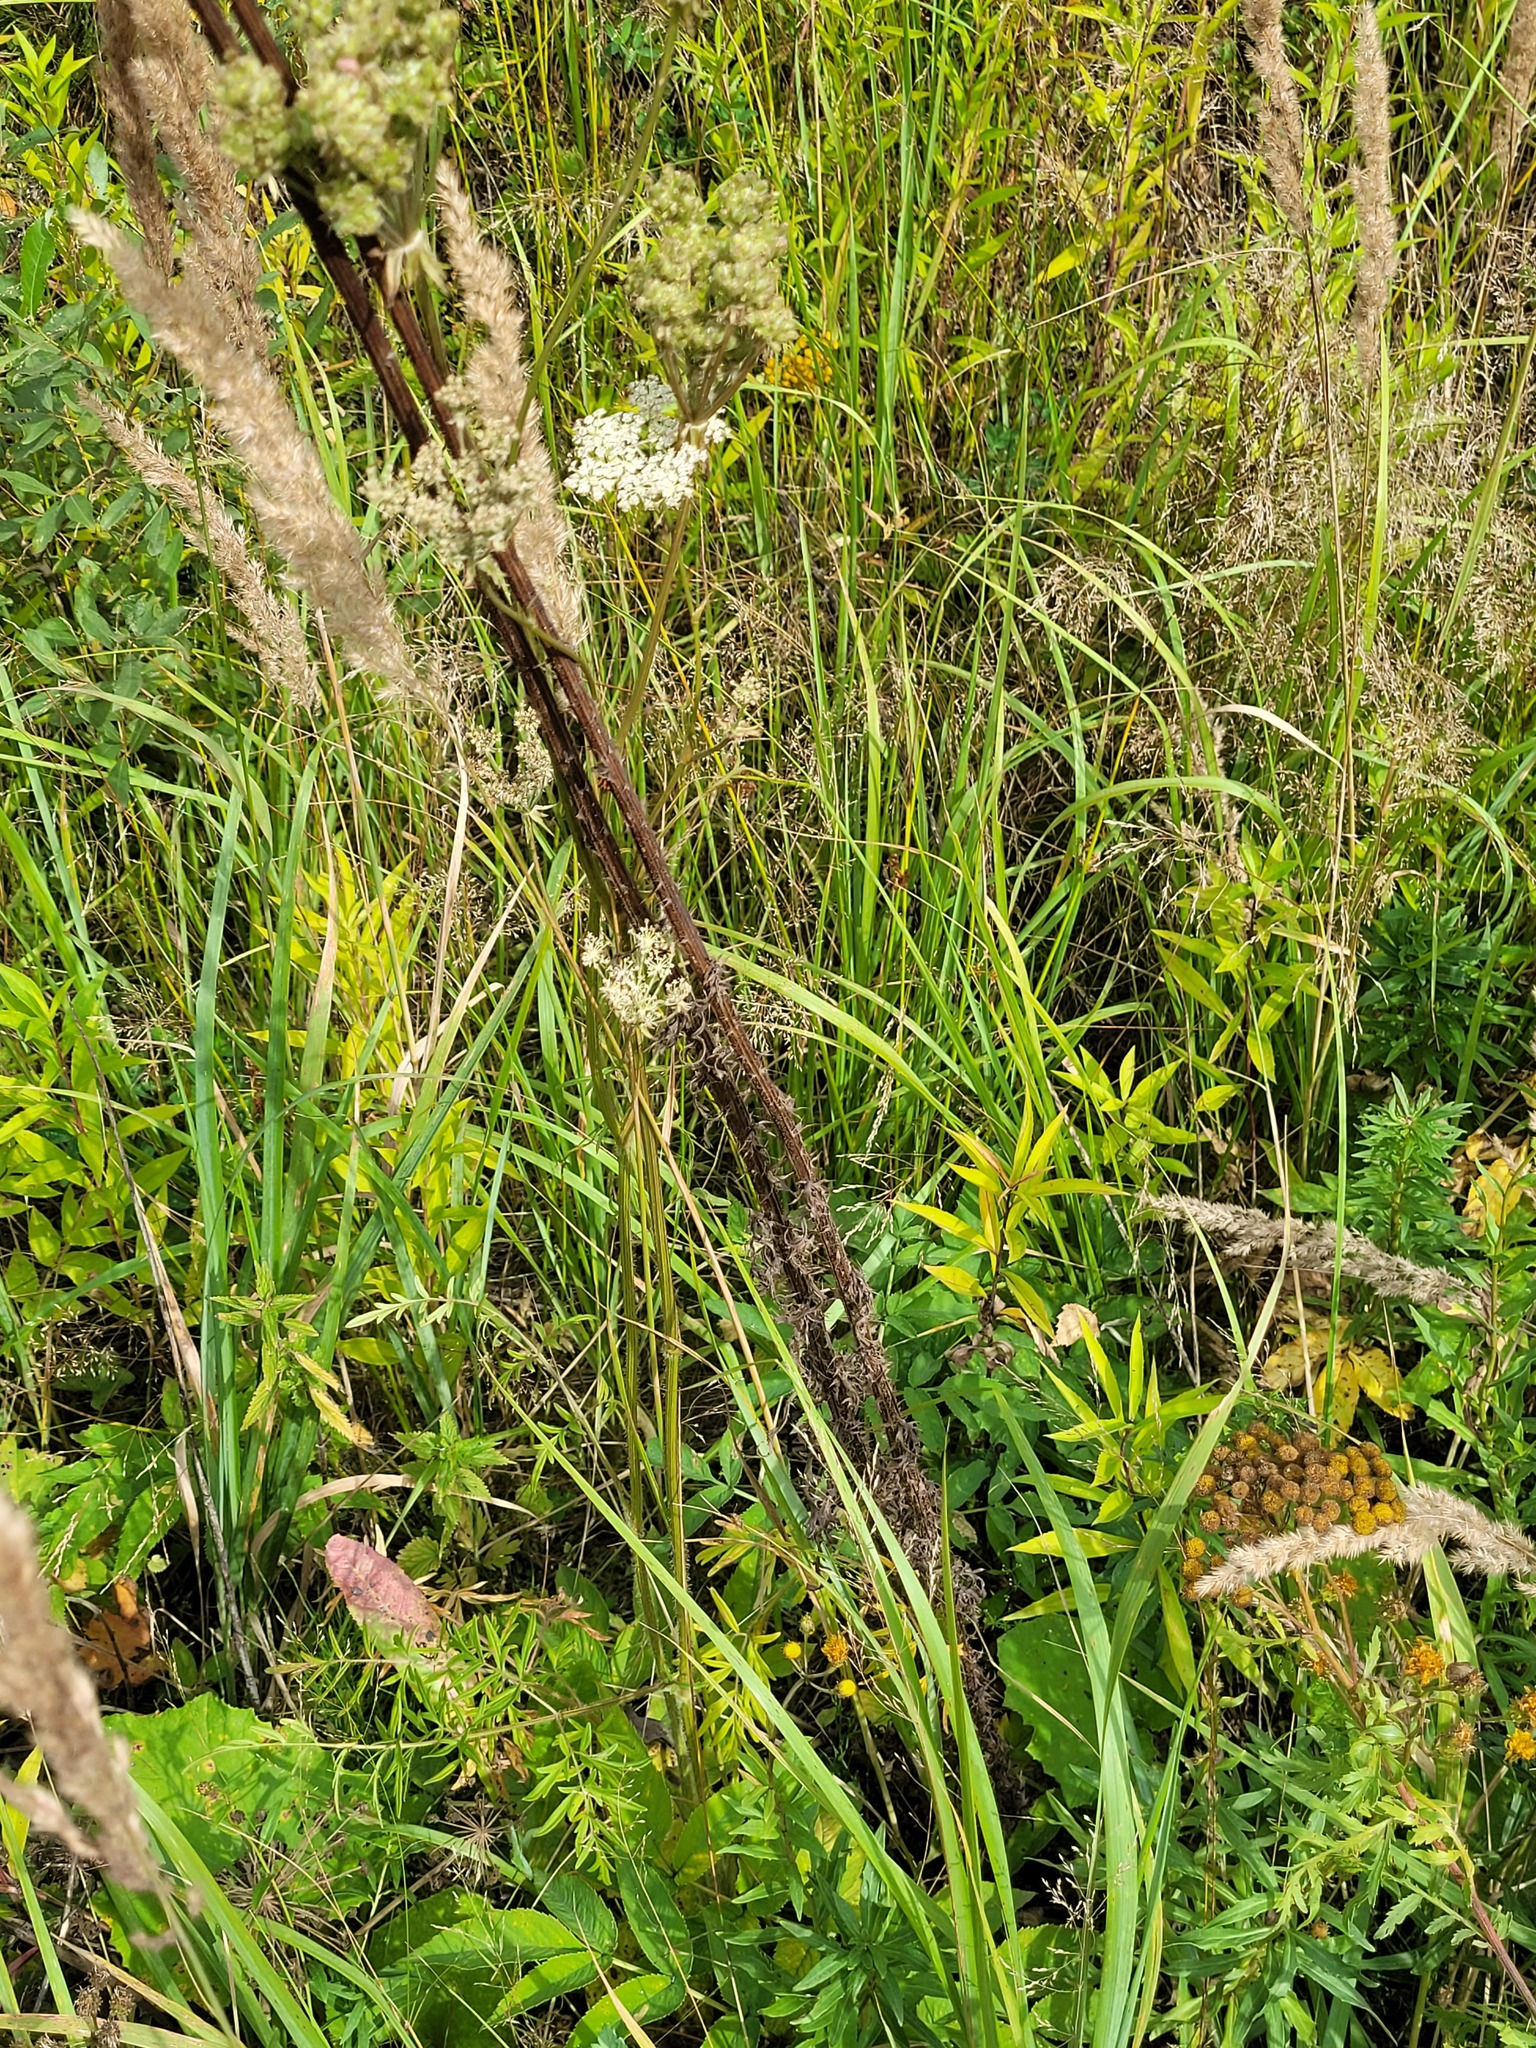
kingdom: Plantae
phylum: Tracheophyta
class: Magnoliopsida
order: Asterales
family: Asteraceae
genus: Cirsium
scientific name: Cirsium palustre
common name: Marsh thistle
